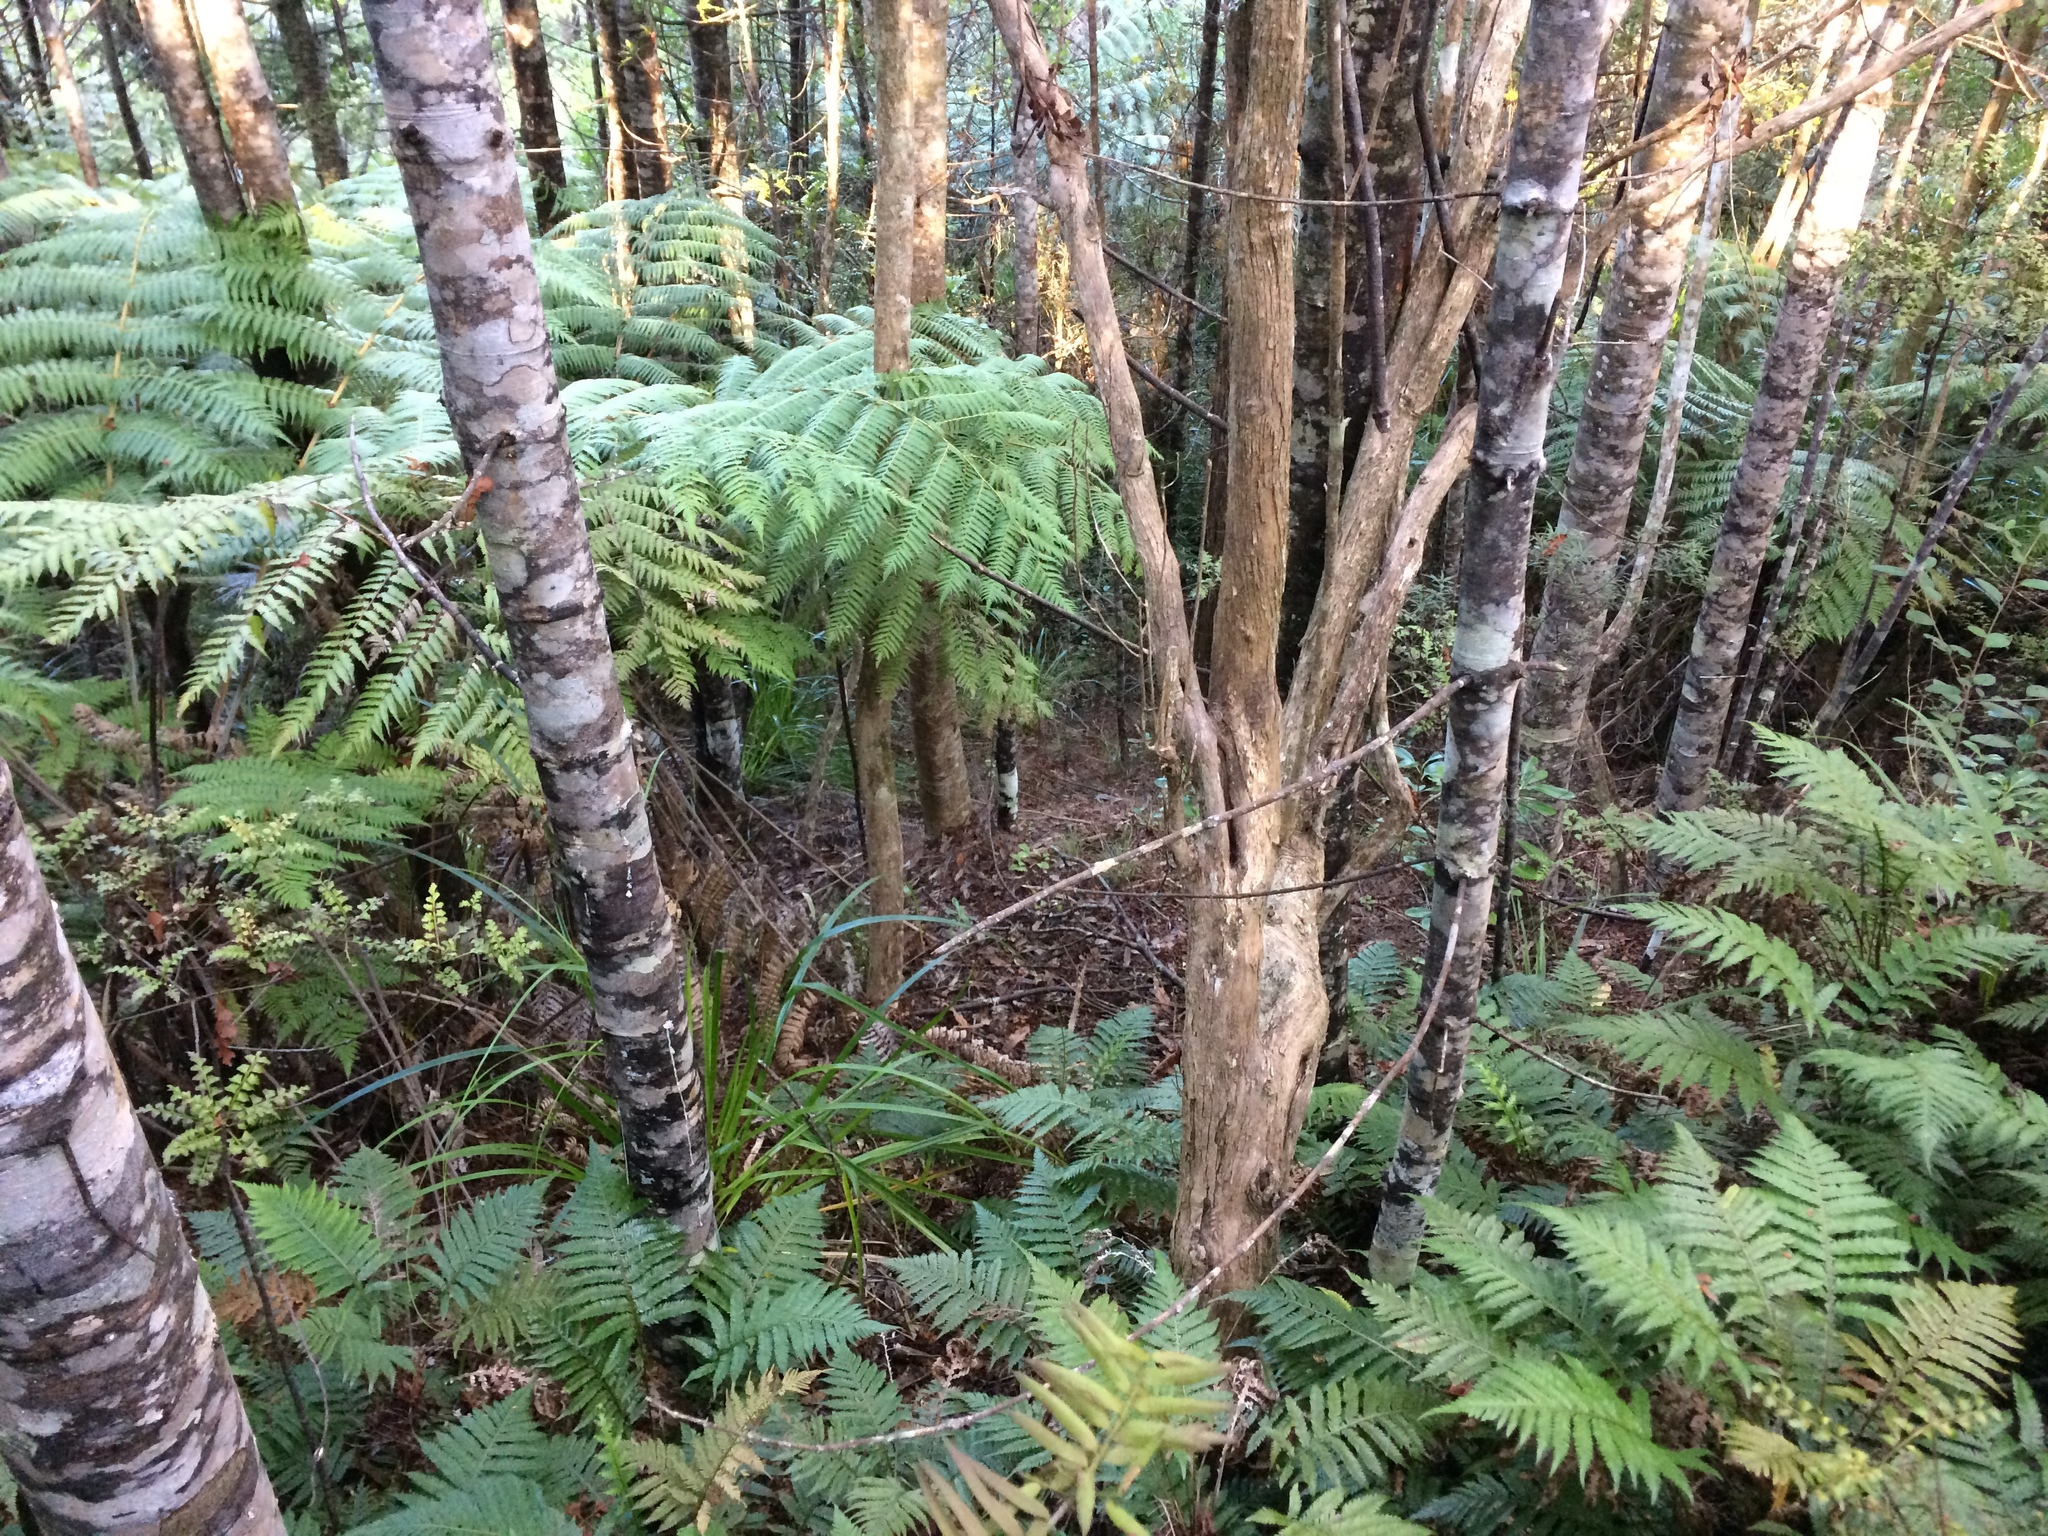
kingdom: Plantae
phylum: Tracheophyta
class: Polypodiopsida
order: Polypodiales
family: Blechnaceae
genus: Diploblechnum
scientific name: Diploblechnum fraseri
